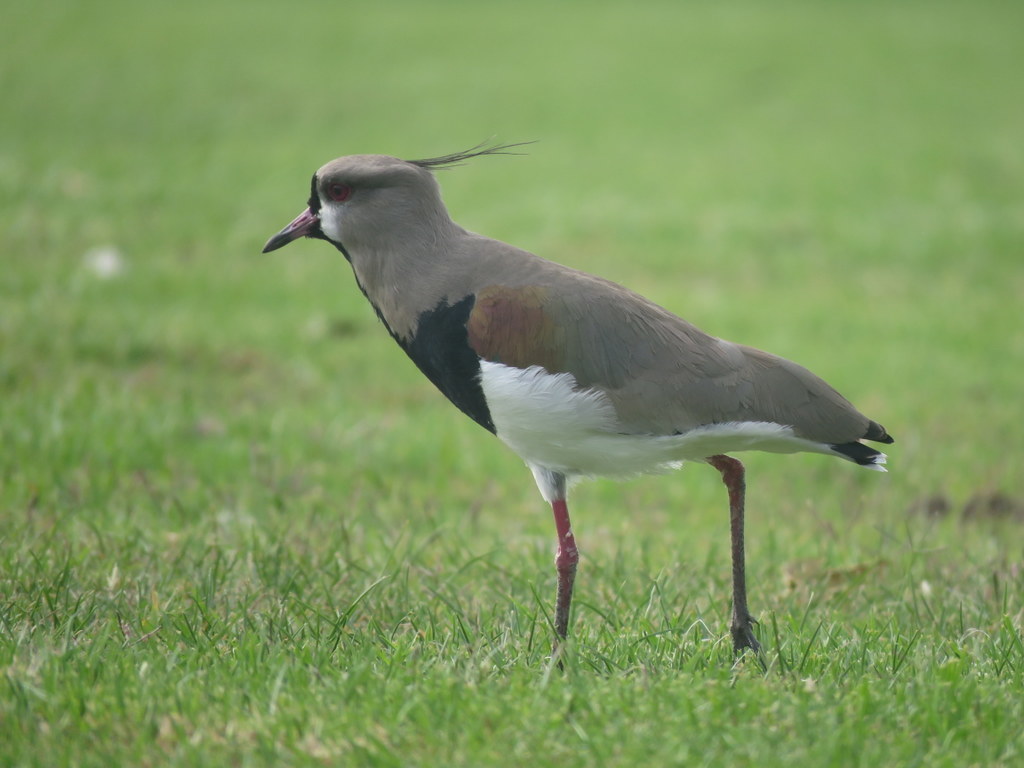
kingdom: Animalia
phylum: Chordata
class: Aves
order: Charadriiformes
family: Charadriidae
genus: Vanellus
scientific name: Vanellus chilensis
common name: Southern lapwing
